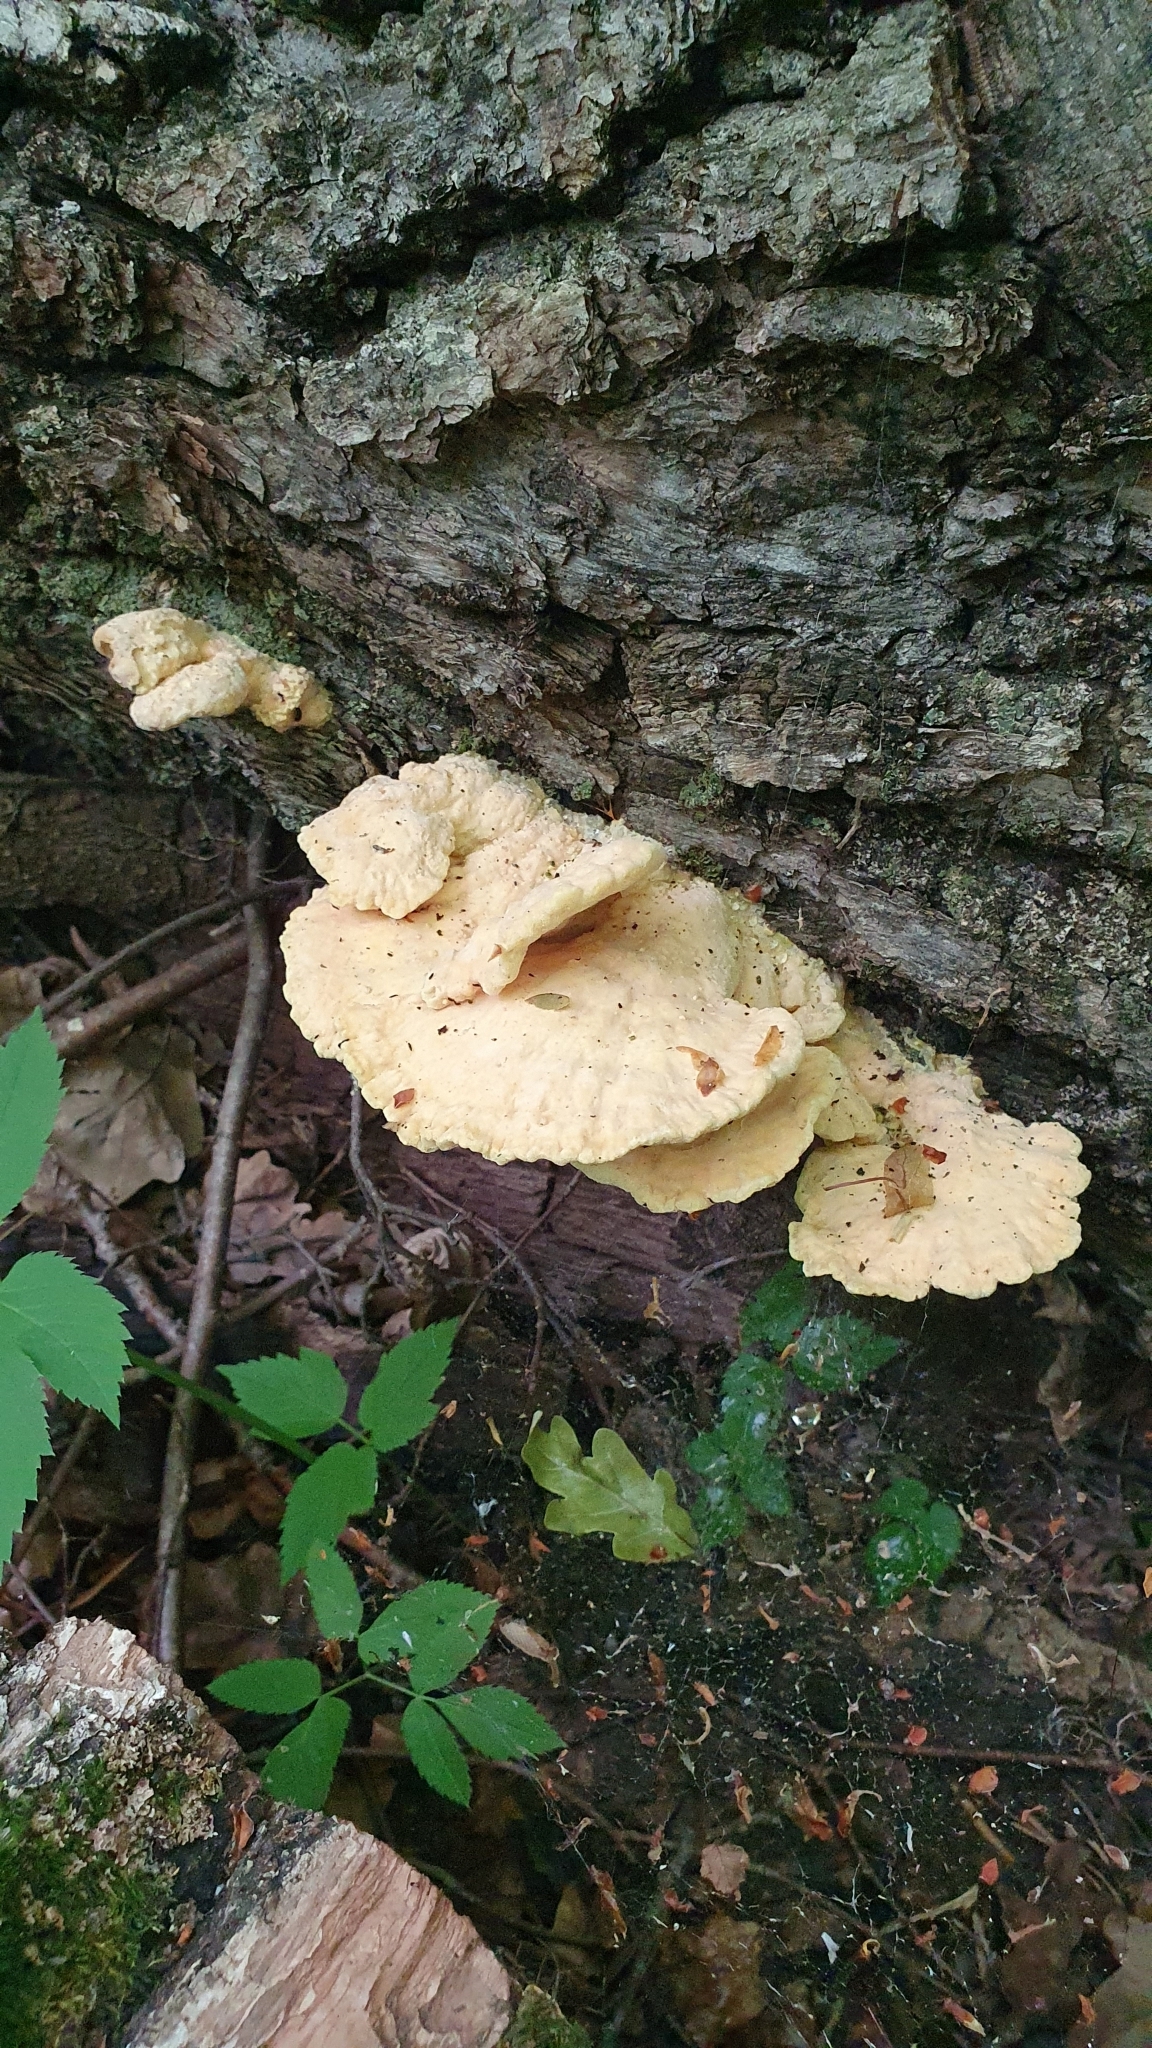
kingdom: Fungi
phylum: Basidiomycota
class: Agaricomycetes
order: Polyporales
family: Laetiporaceae
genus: Laetiporus
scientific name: Laetiporus sulphureus
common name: Chicken of the woods
